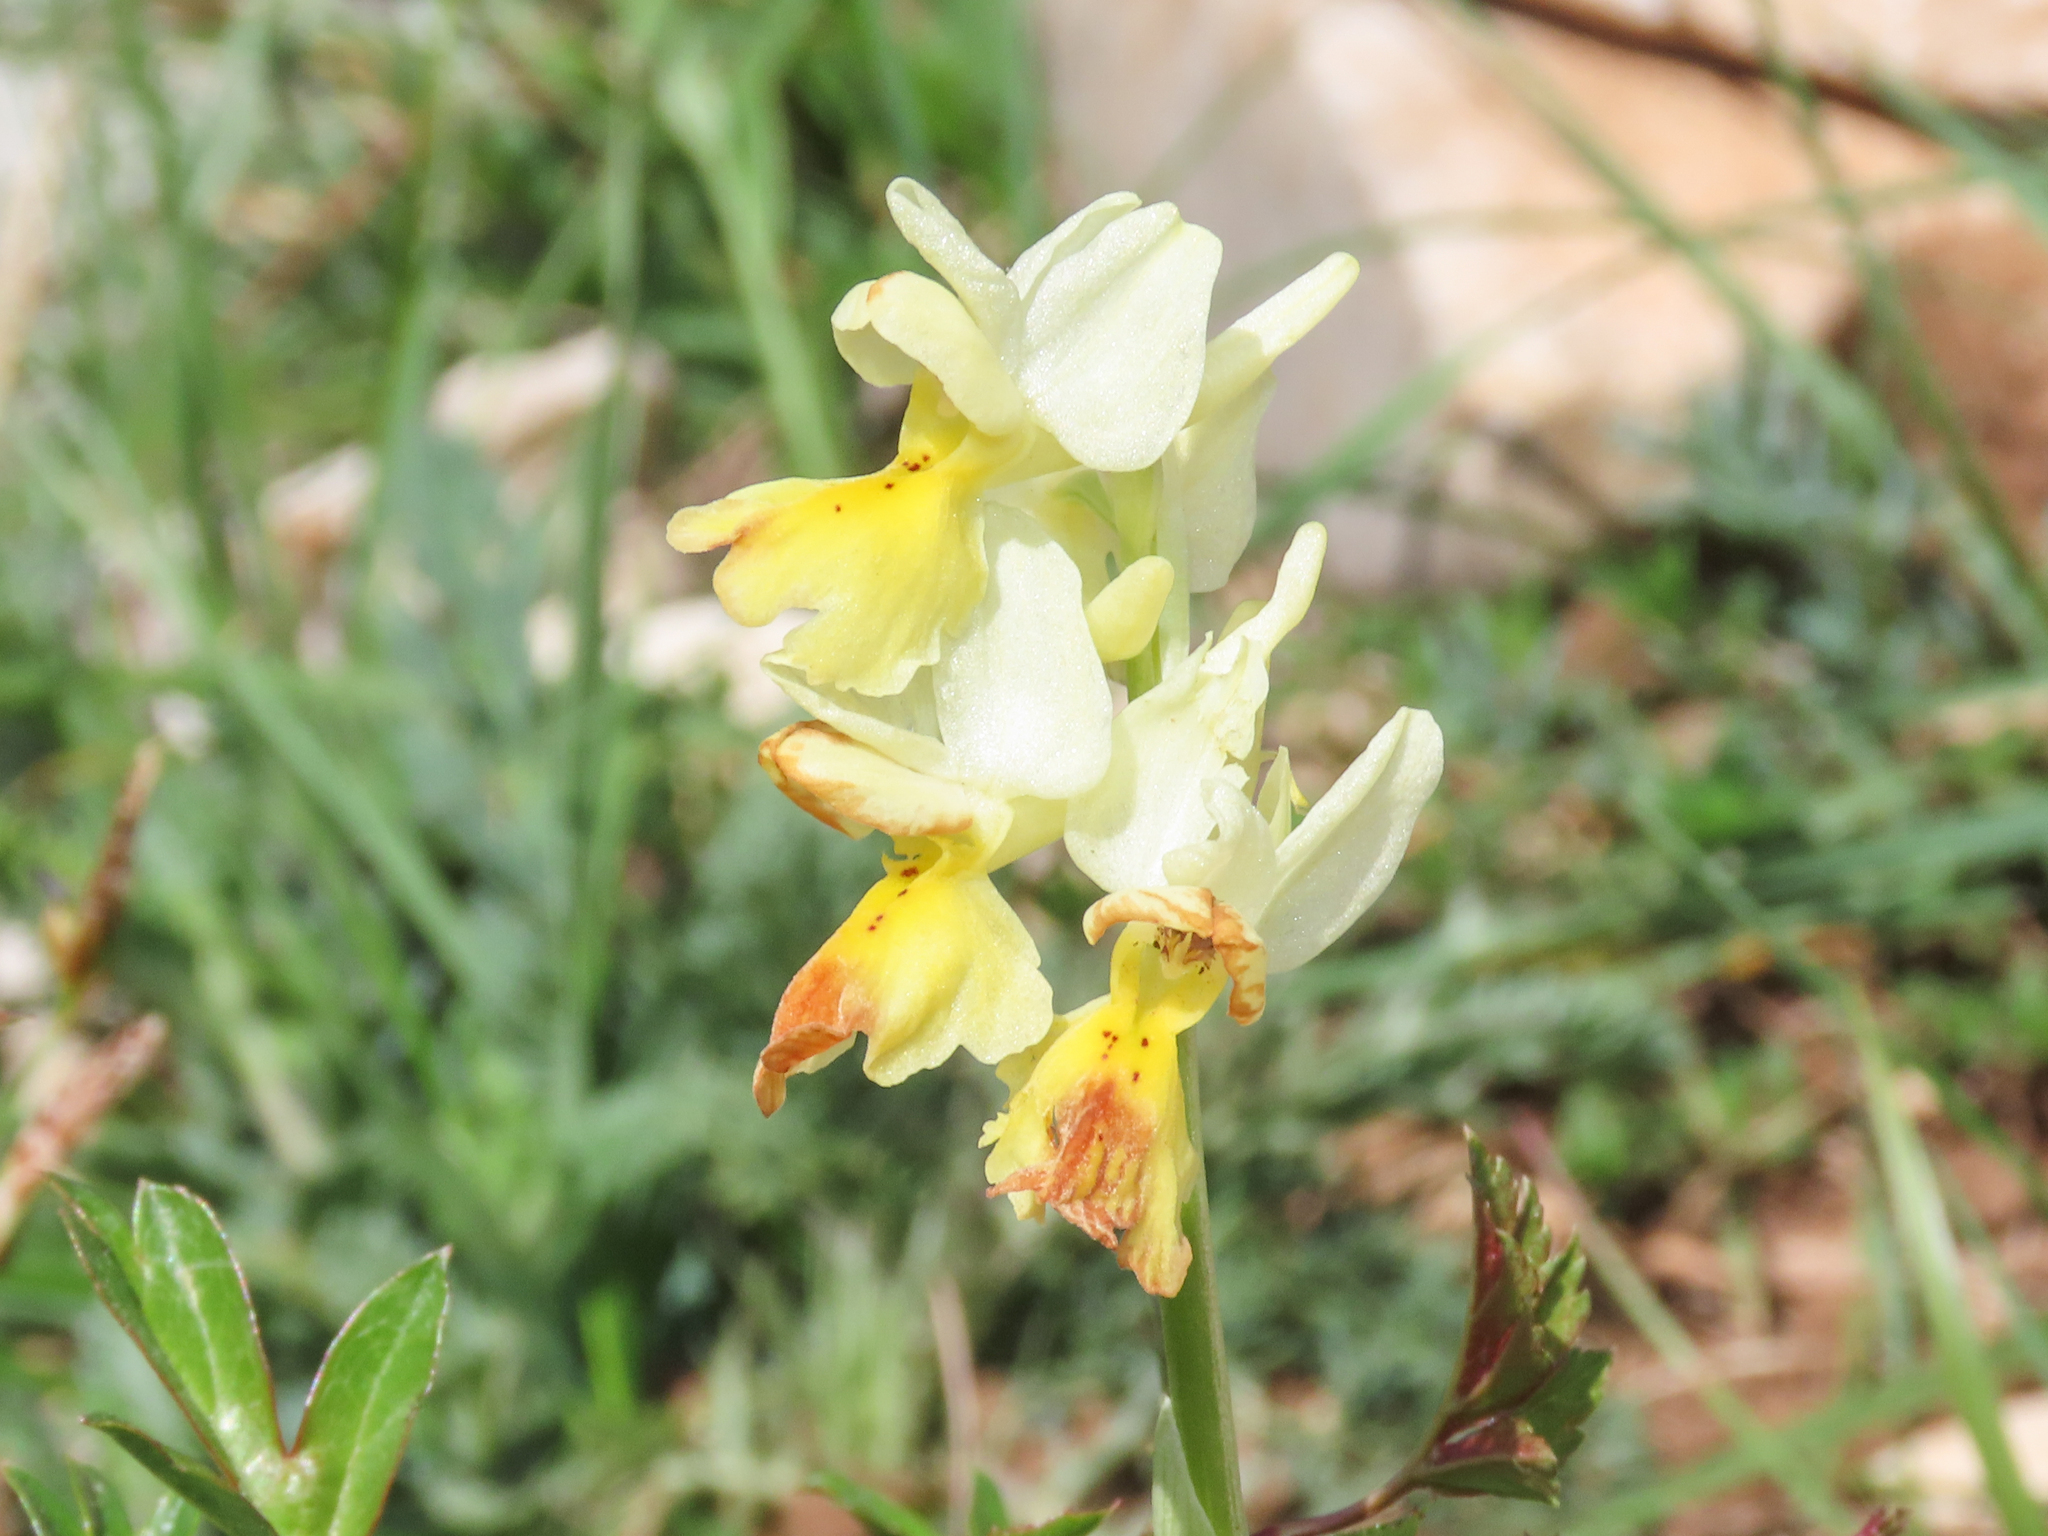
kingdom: Plantae
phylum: Tracheophyta
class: Liliopsida
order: Asparagales
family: Orchidaceae
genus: Orchis
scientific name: Orchis pauciflora
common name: Few-flowered orchid
